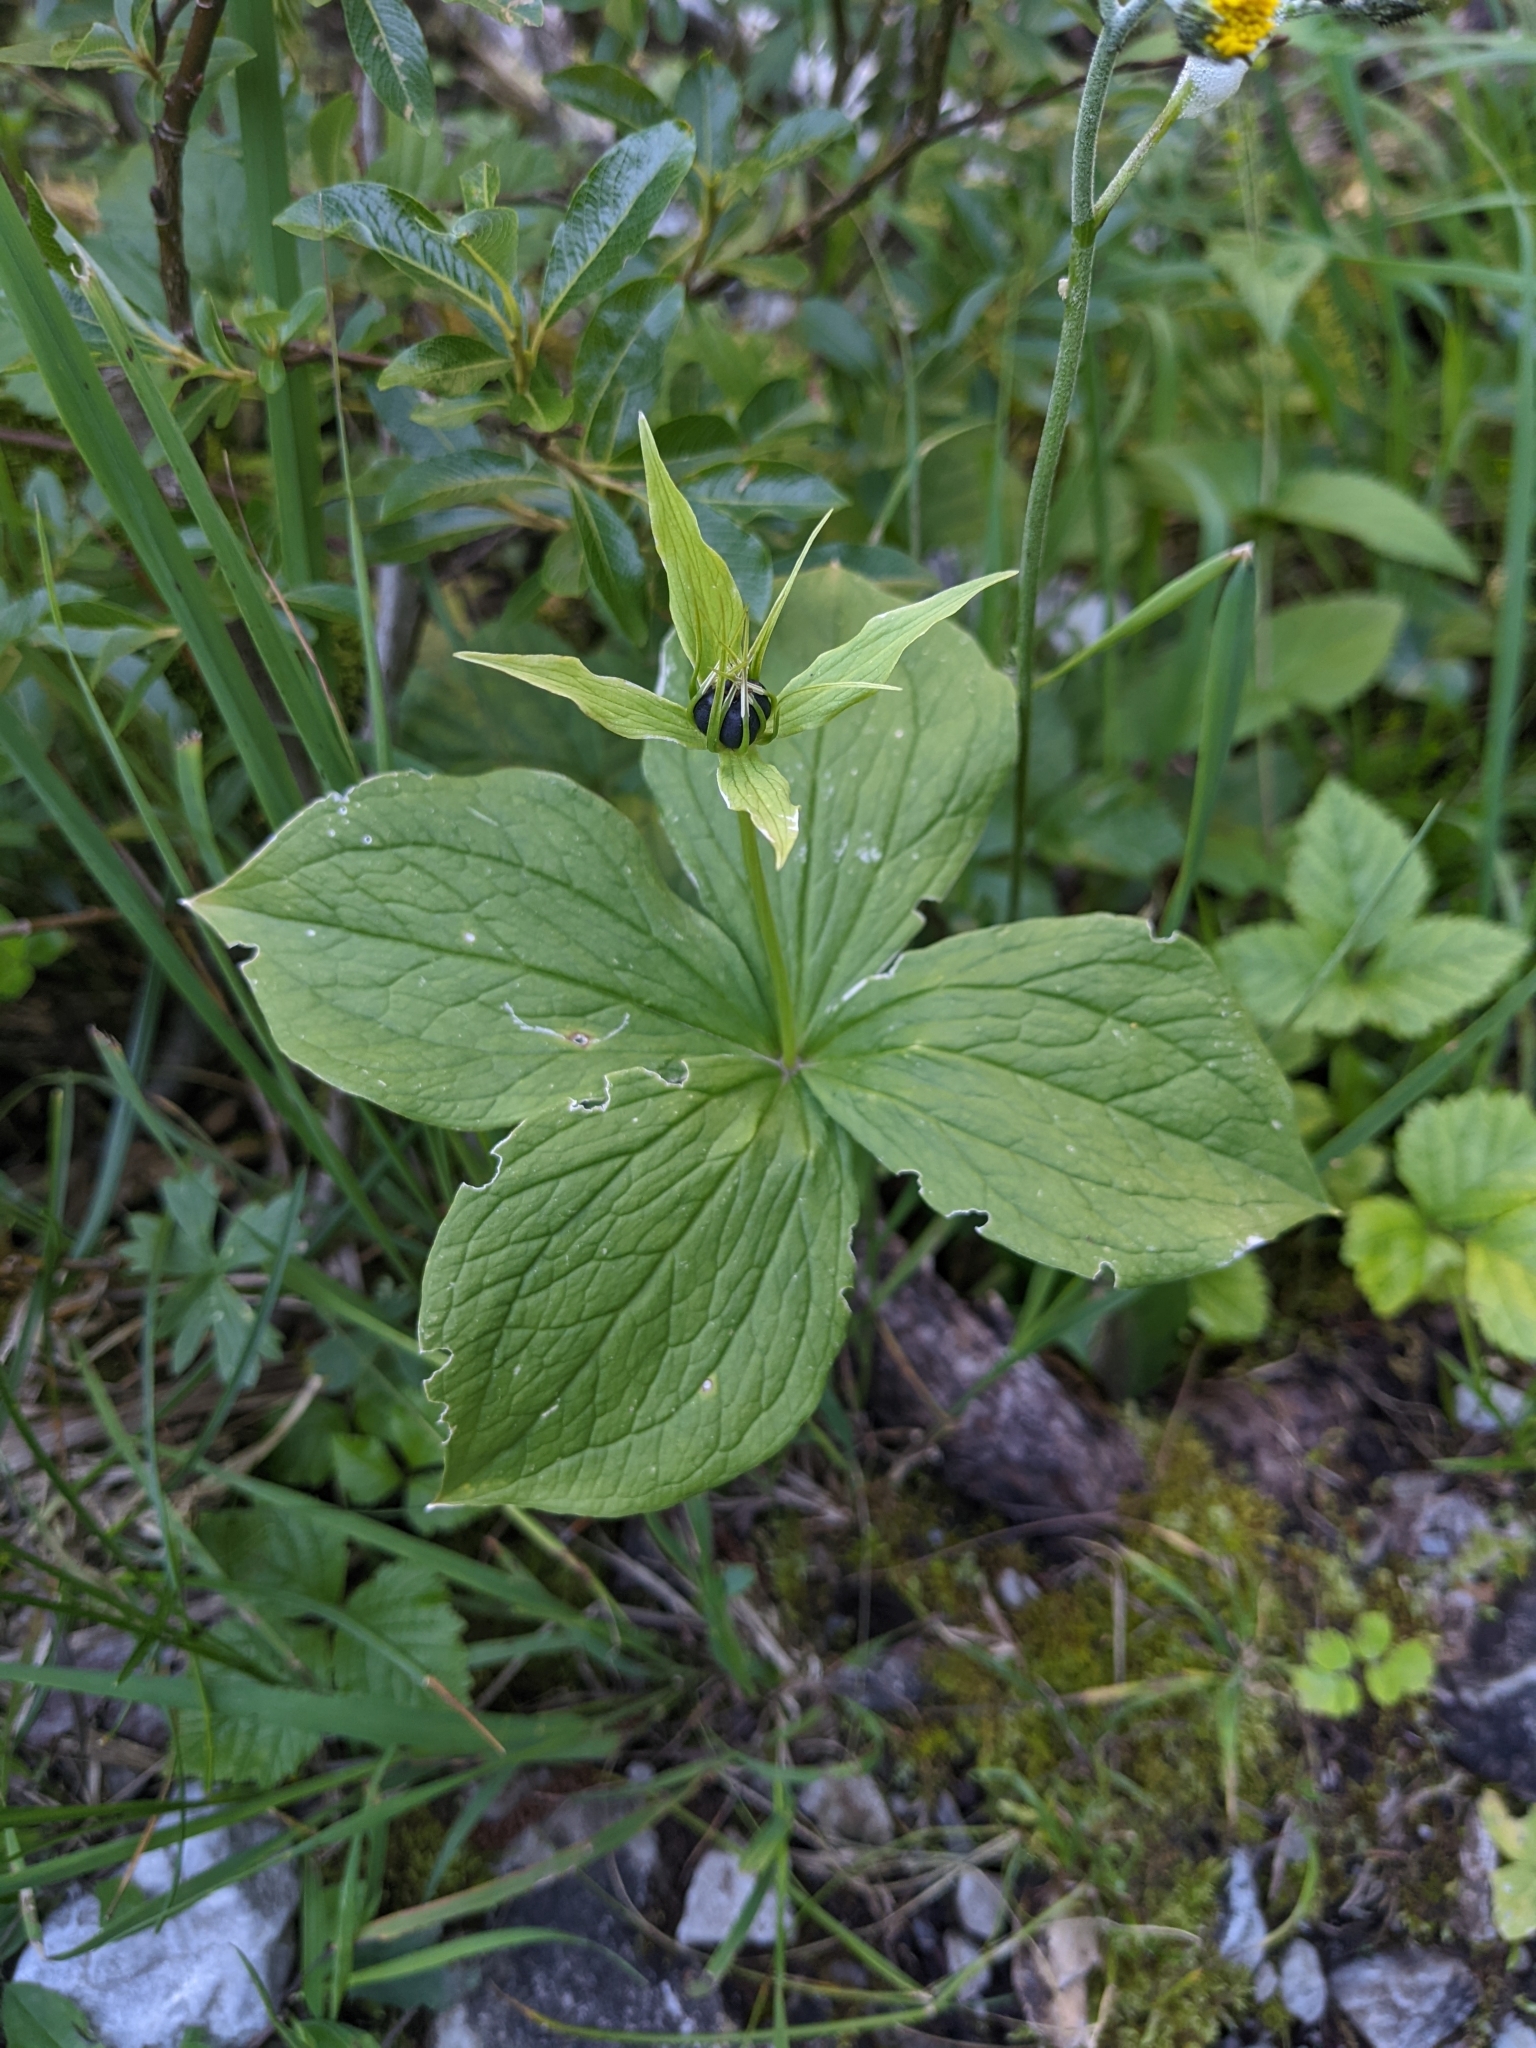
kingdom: Plantae
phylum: Tracheophyta
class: Liliopsida
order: Liliales
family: Melanthiaceae
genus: Paris
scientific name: Paris quadrifolia
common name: Herb-paris
